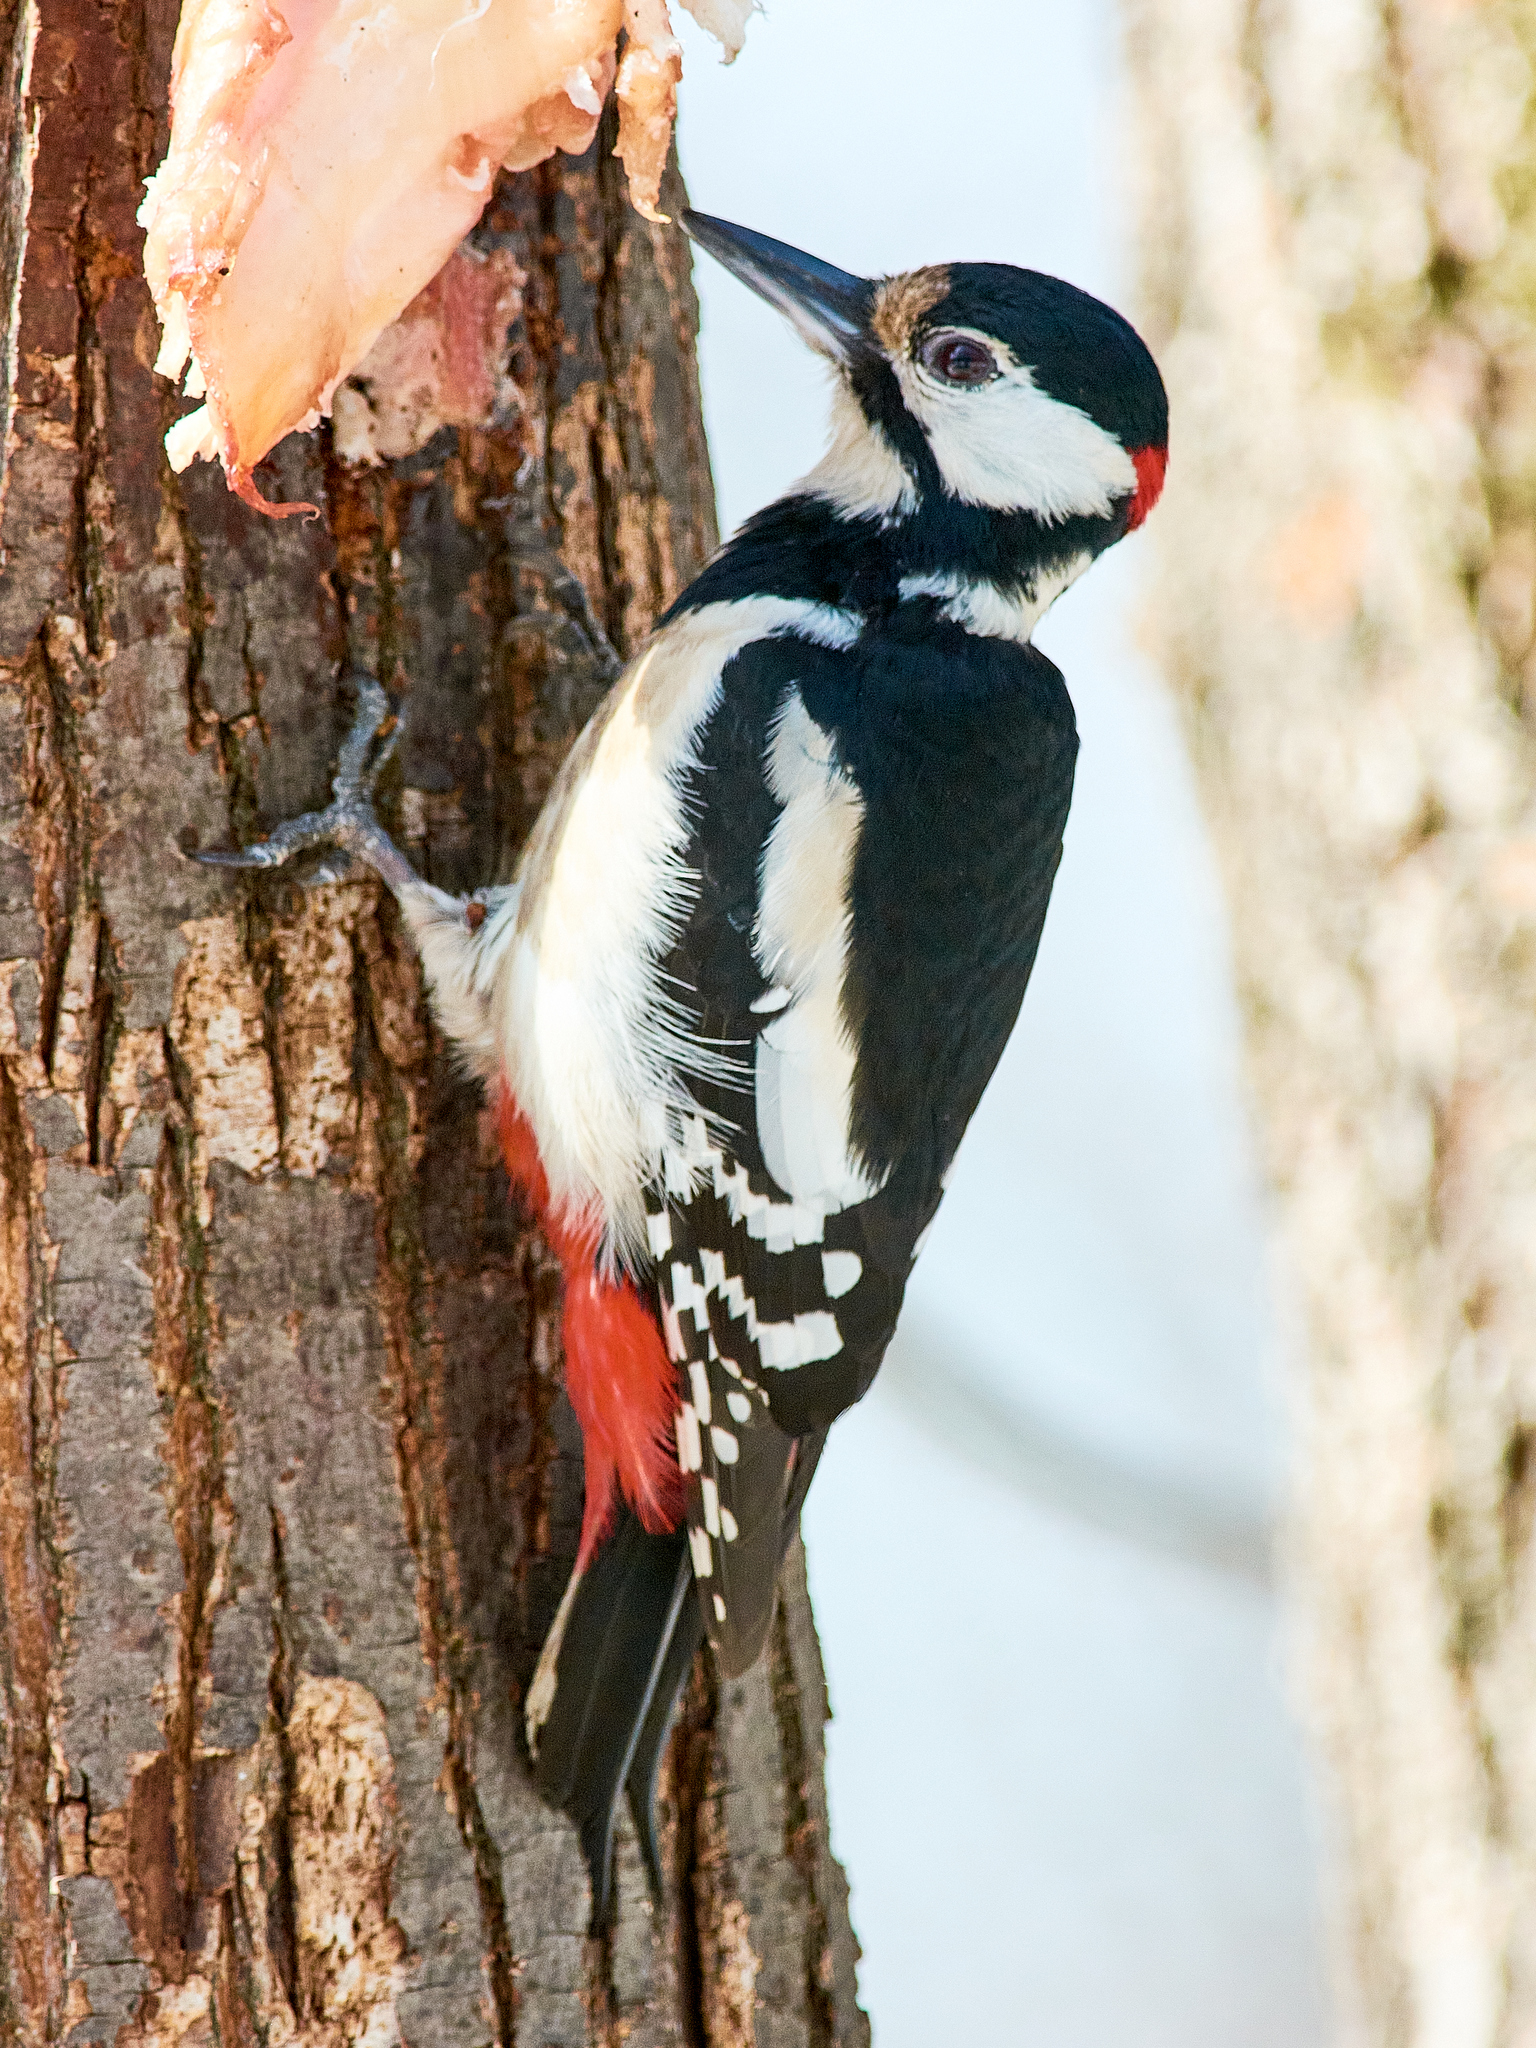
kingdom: Animalia
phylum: Chordata
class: Aves
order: Piciformes
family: Picidae
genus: Dendrocopos
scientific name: Dendrocopos major
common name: Great spotted woodpecker
